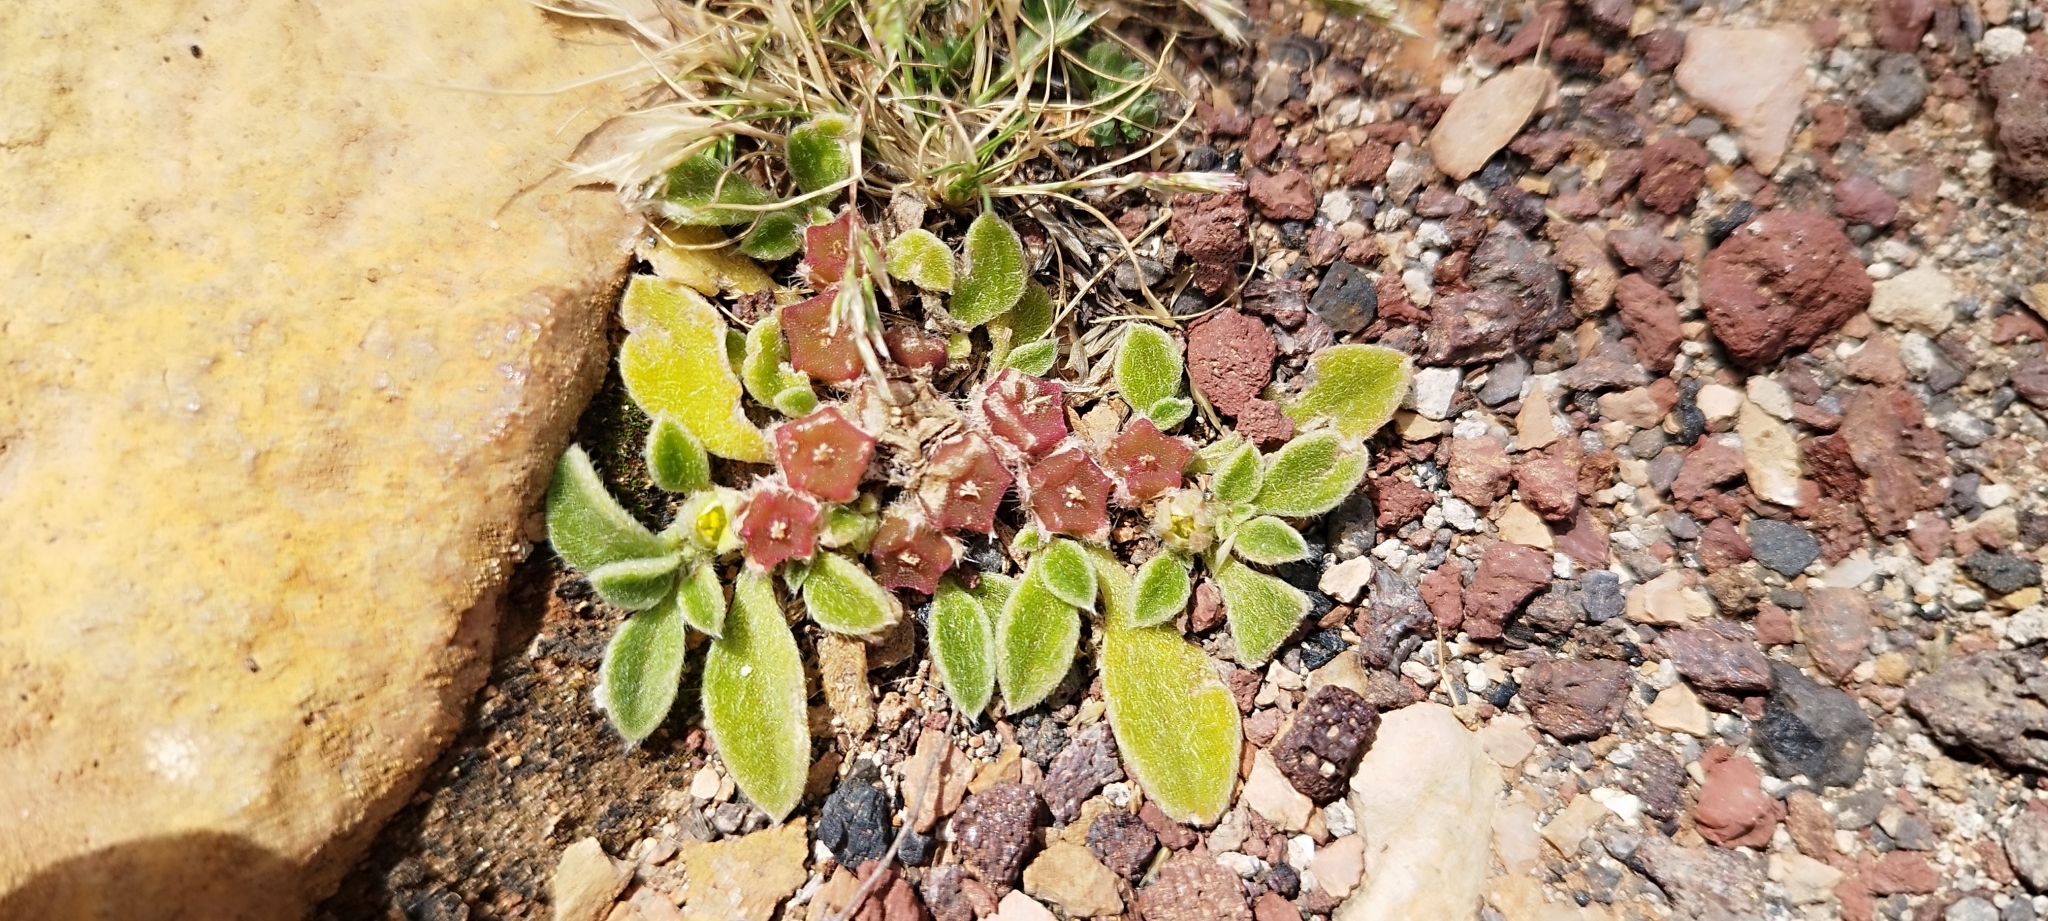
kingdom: Plantae
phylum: Tracheophyta
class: Magnoliopsida
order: Caryophyllales
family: Aizoaceae
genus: Aizoon
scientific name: Aizoon canariense
